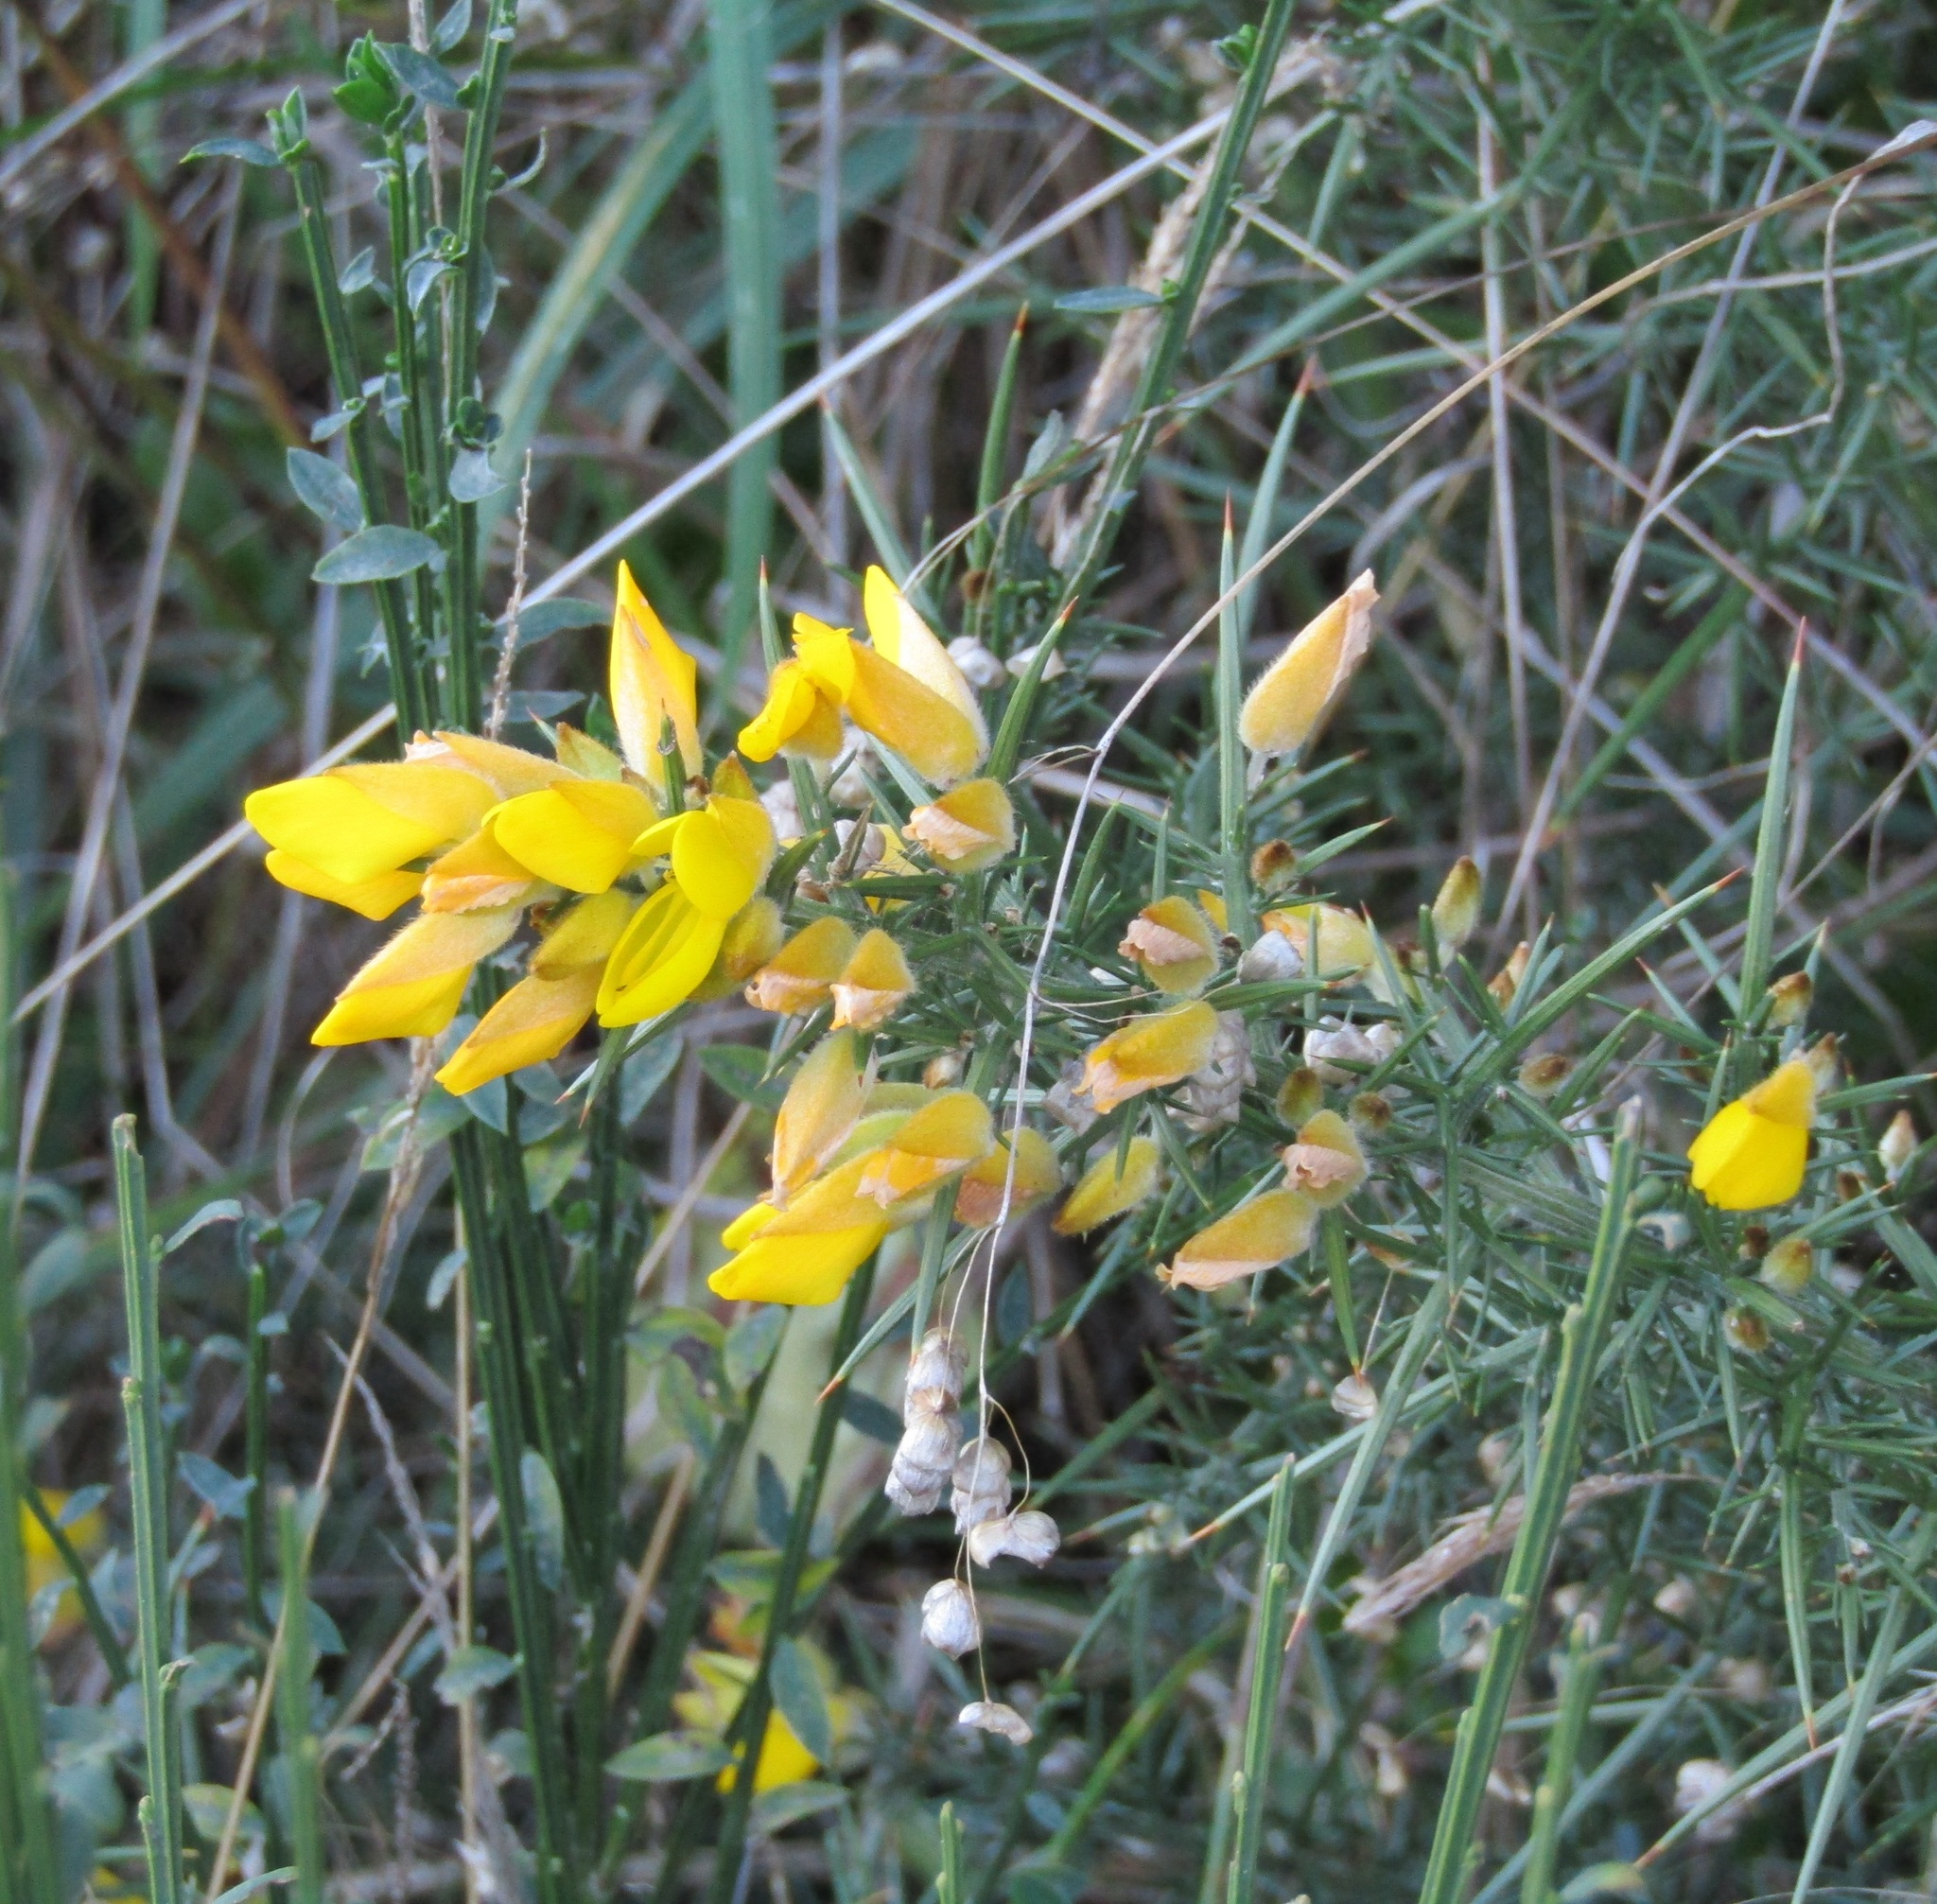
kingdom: Plantae
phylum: Tracheophyta
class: Magnoliopsida
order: Fabales
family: Fabaceae
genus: Ulex
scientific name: Ulex europaeus
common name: Common gorse
